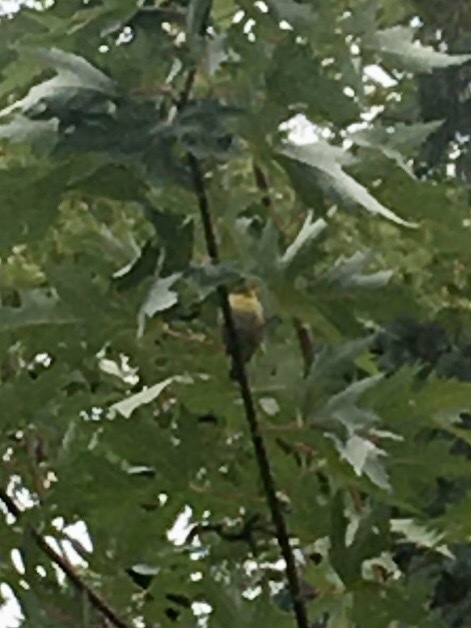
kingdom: Animalia
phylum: Chordata
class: Aves
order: Passeriformes
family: Parulidae
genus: Setophaga
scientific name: Setophaga americana
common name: Northern parula
